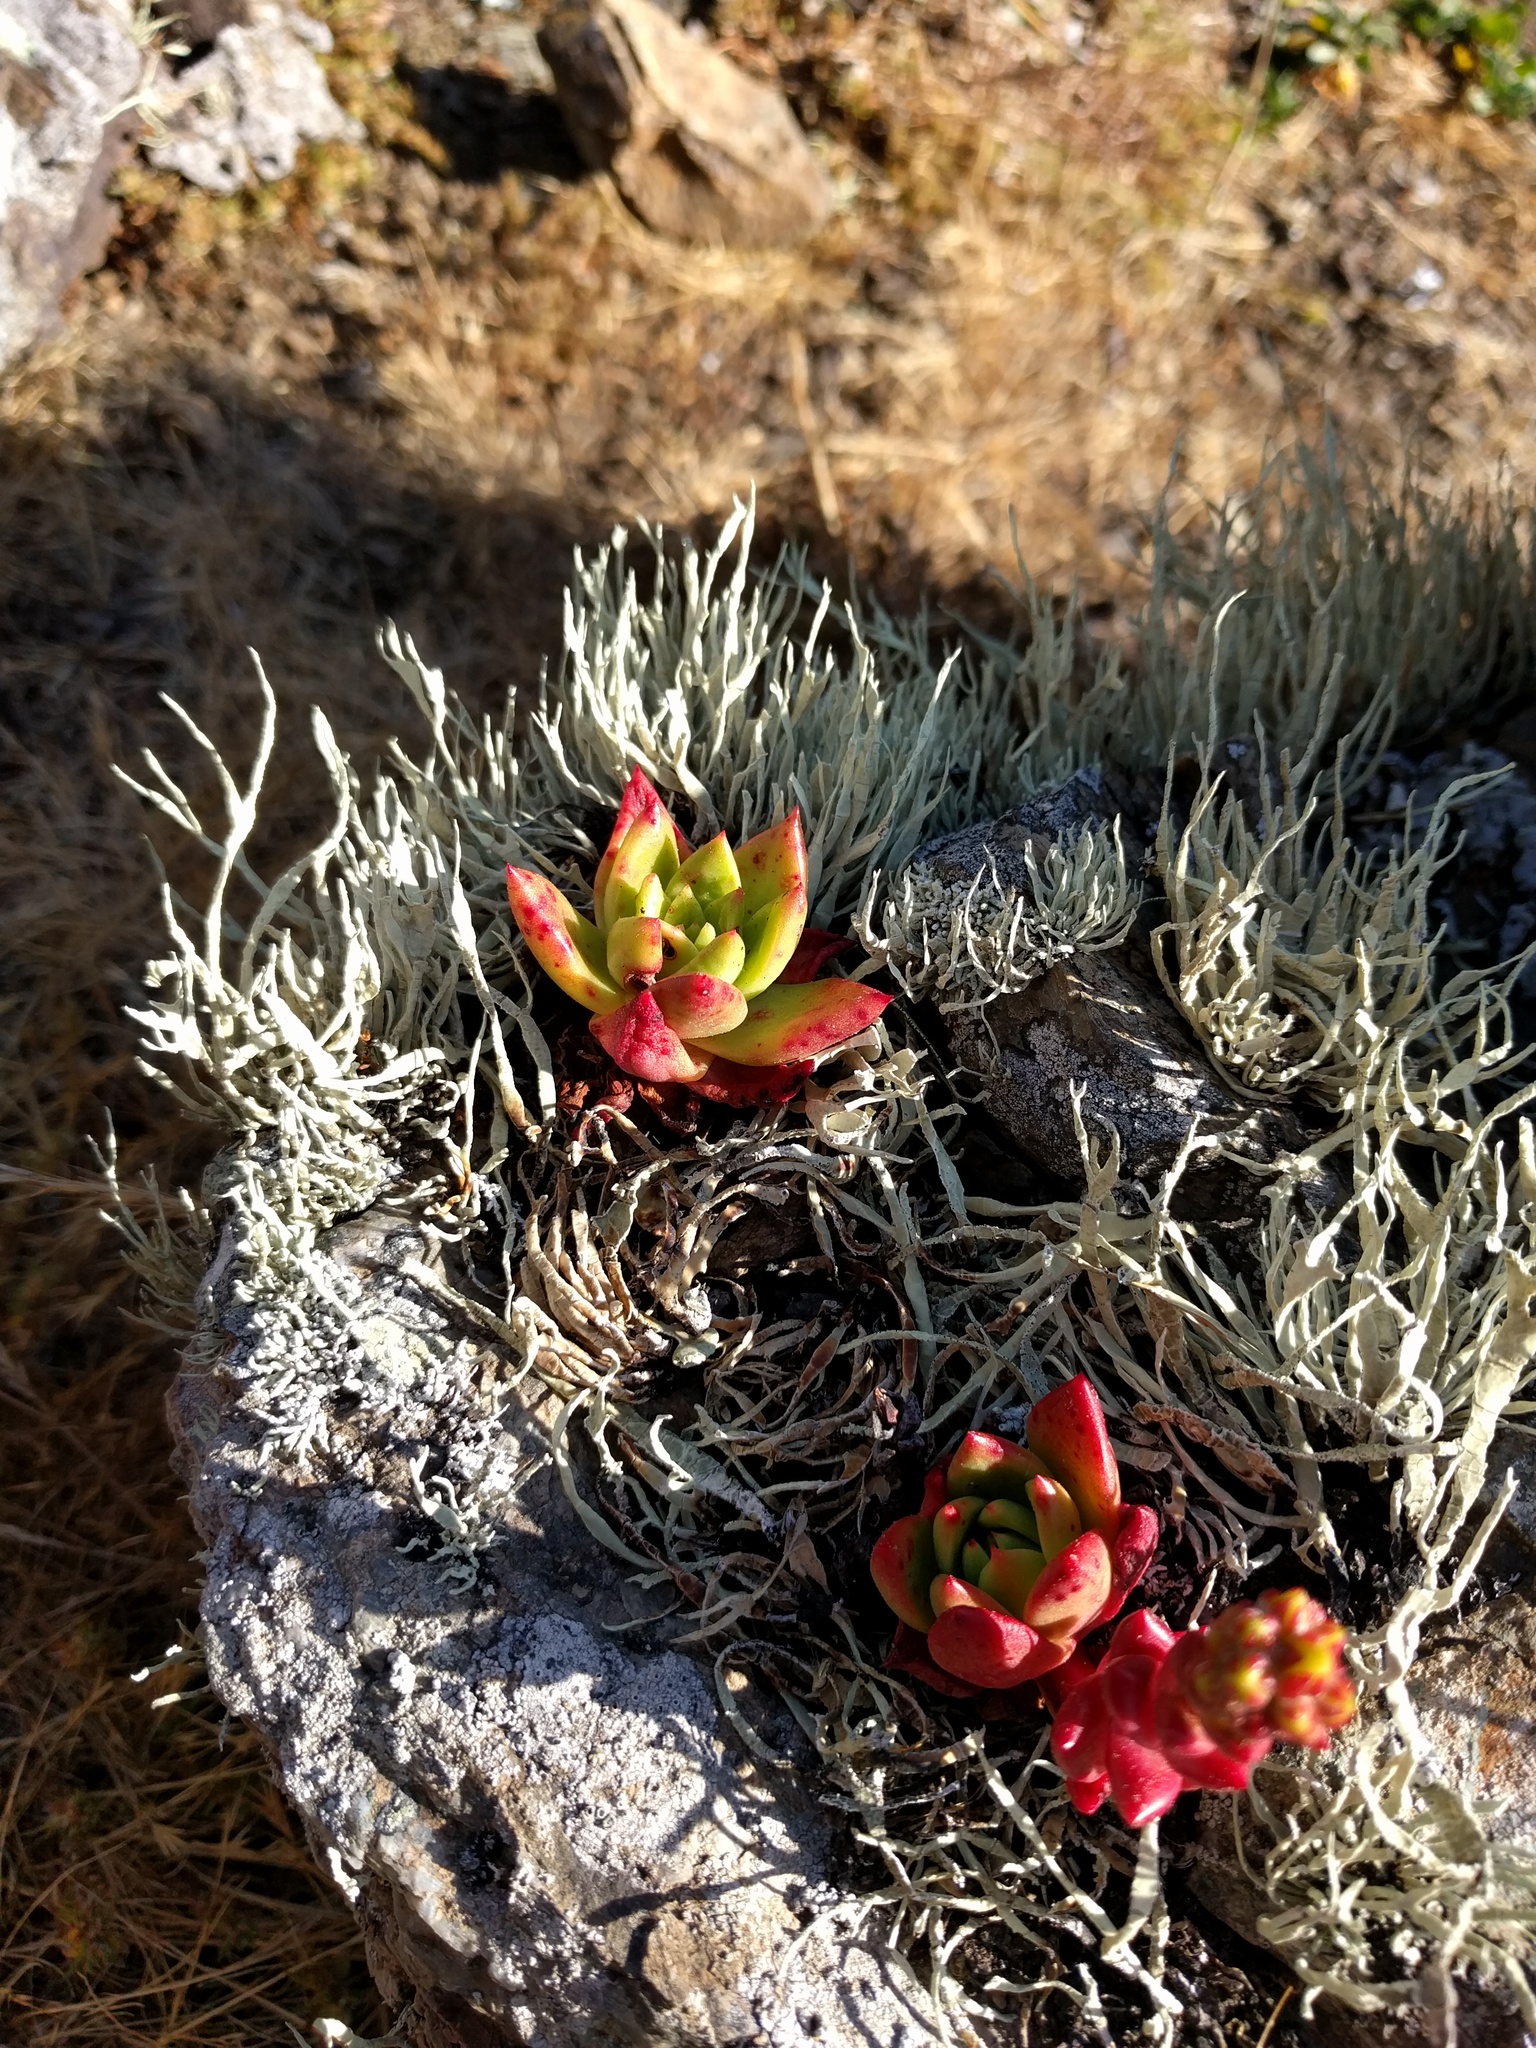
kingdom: Plantae
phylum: Tracheophyta
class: Magnoliopsida
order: Saxifragales
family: Crassulaceae
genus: Dudleya
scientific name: Dudleya farinosa
